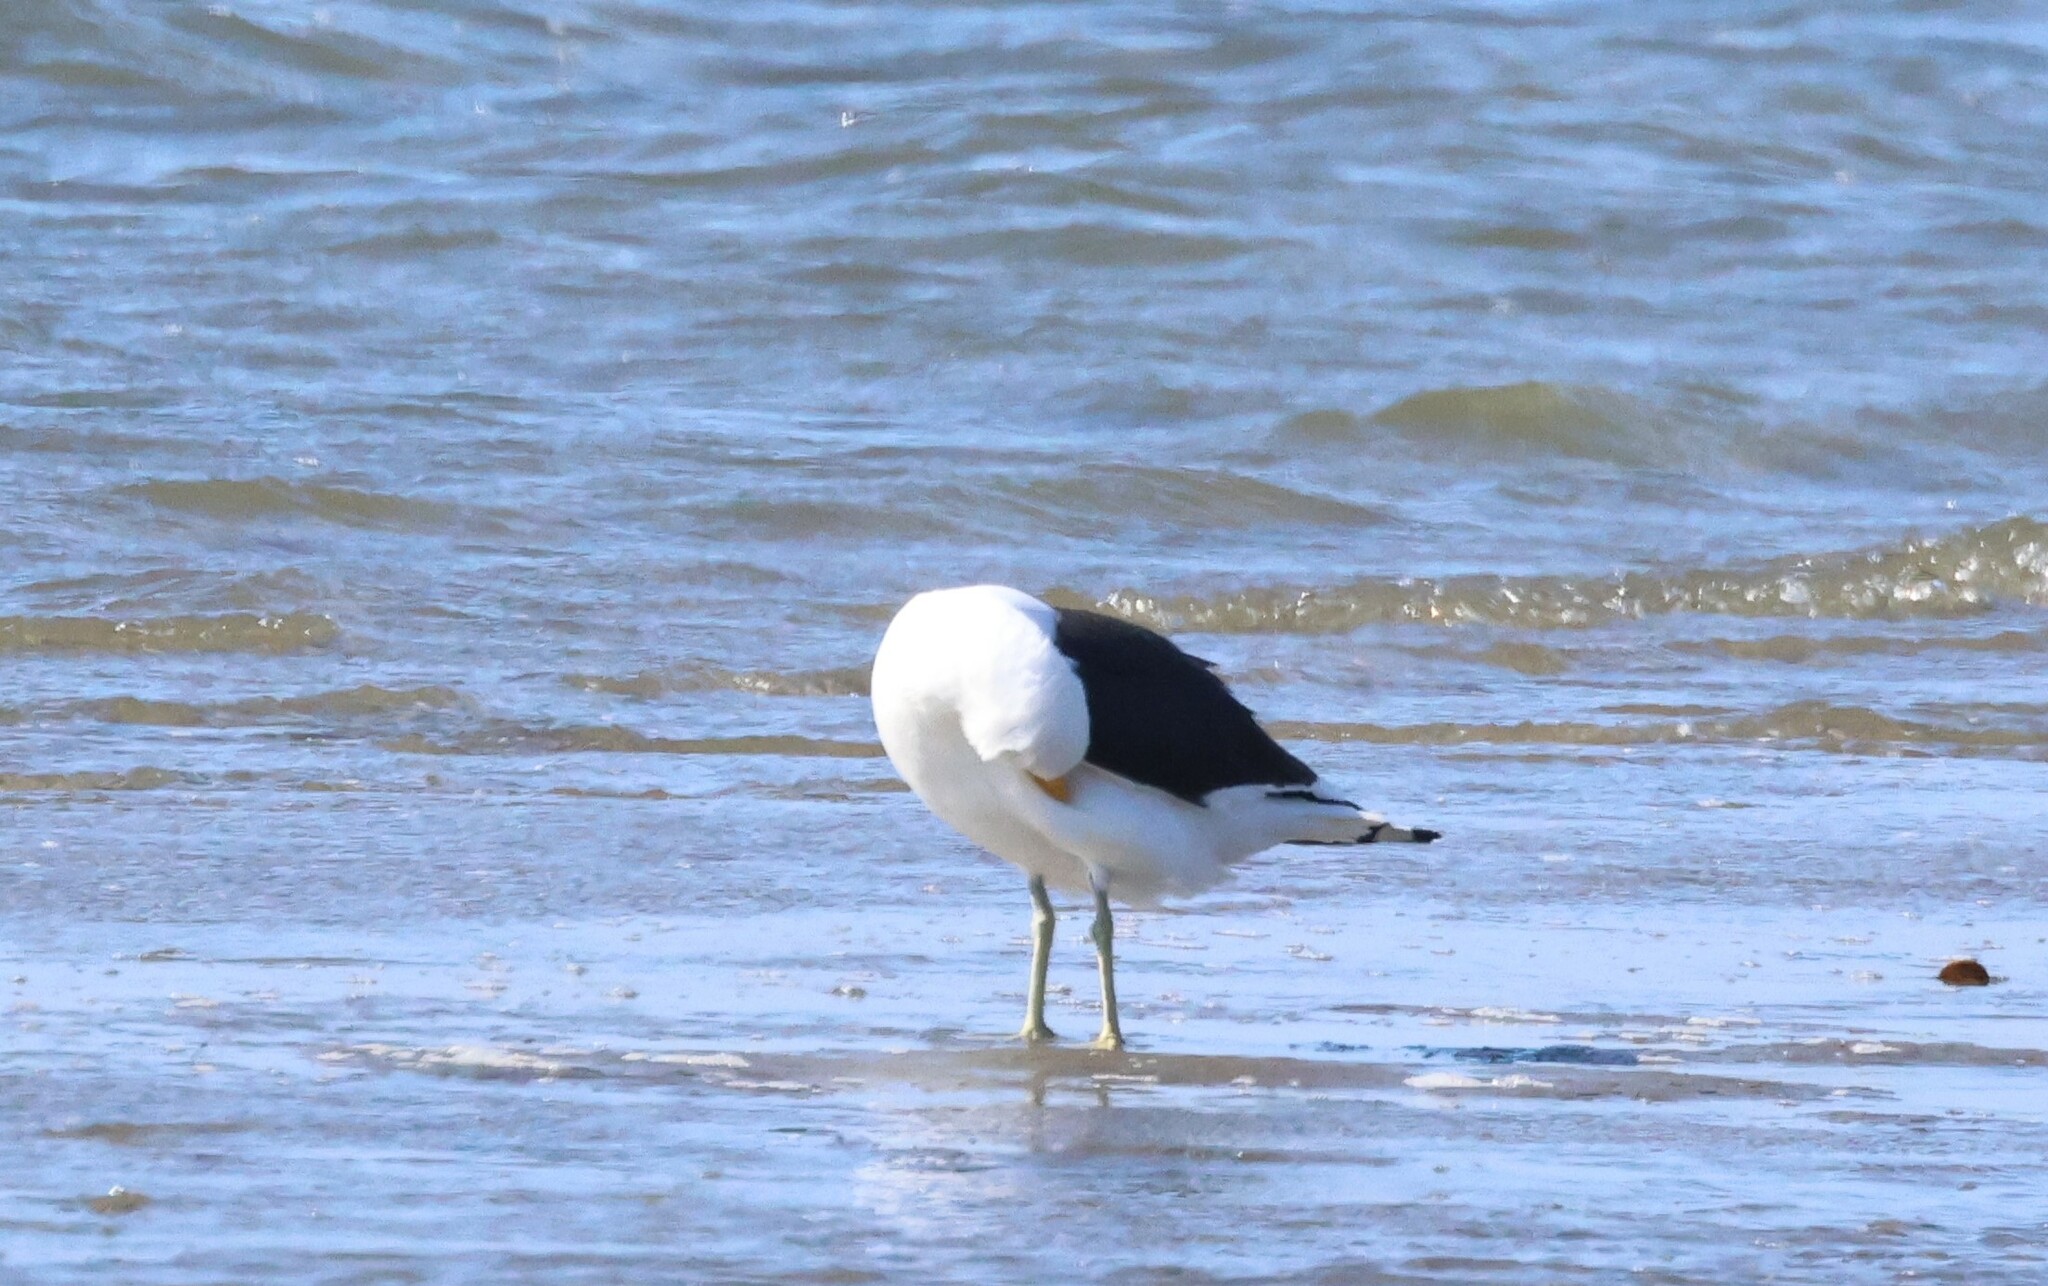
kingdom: Animalia
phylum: Chordata
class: Aves
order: Charadriiformes
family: Laridae
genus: Larus
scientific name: Larus dominicanus
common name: Kelp gull
